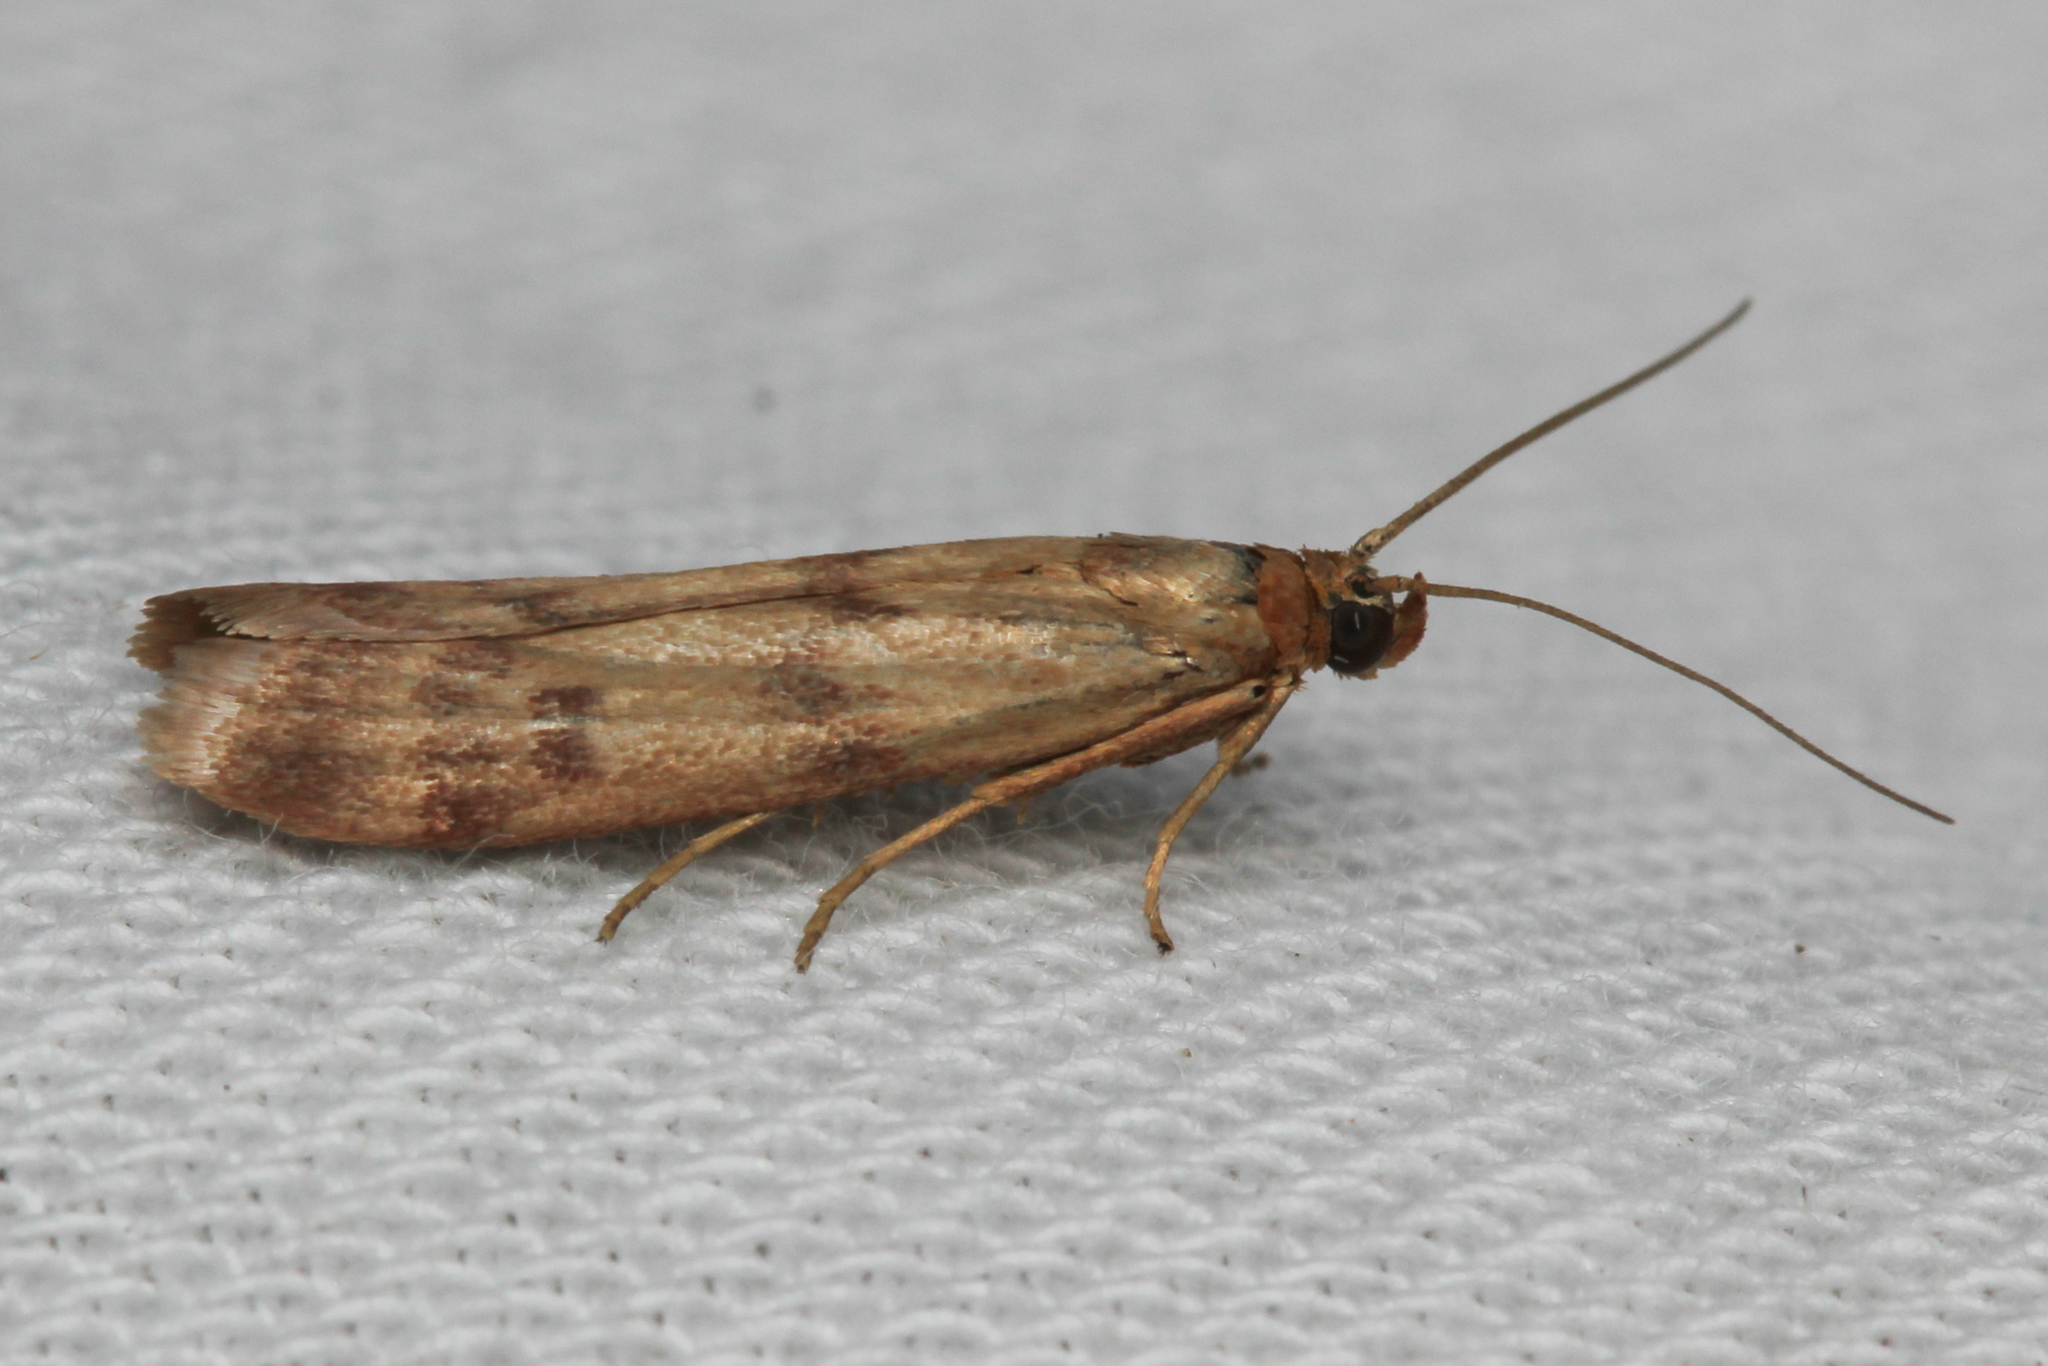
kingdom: Animalia
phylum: Arthropoda
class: Insecta
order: Lepidoptera
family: Pyralidae
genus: Homoeosoma
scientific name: Homoeosoma sinuella
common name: Twin-barred knot-horn
